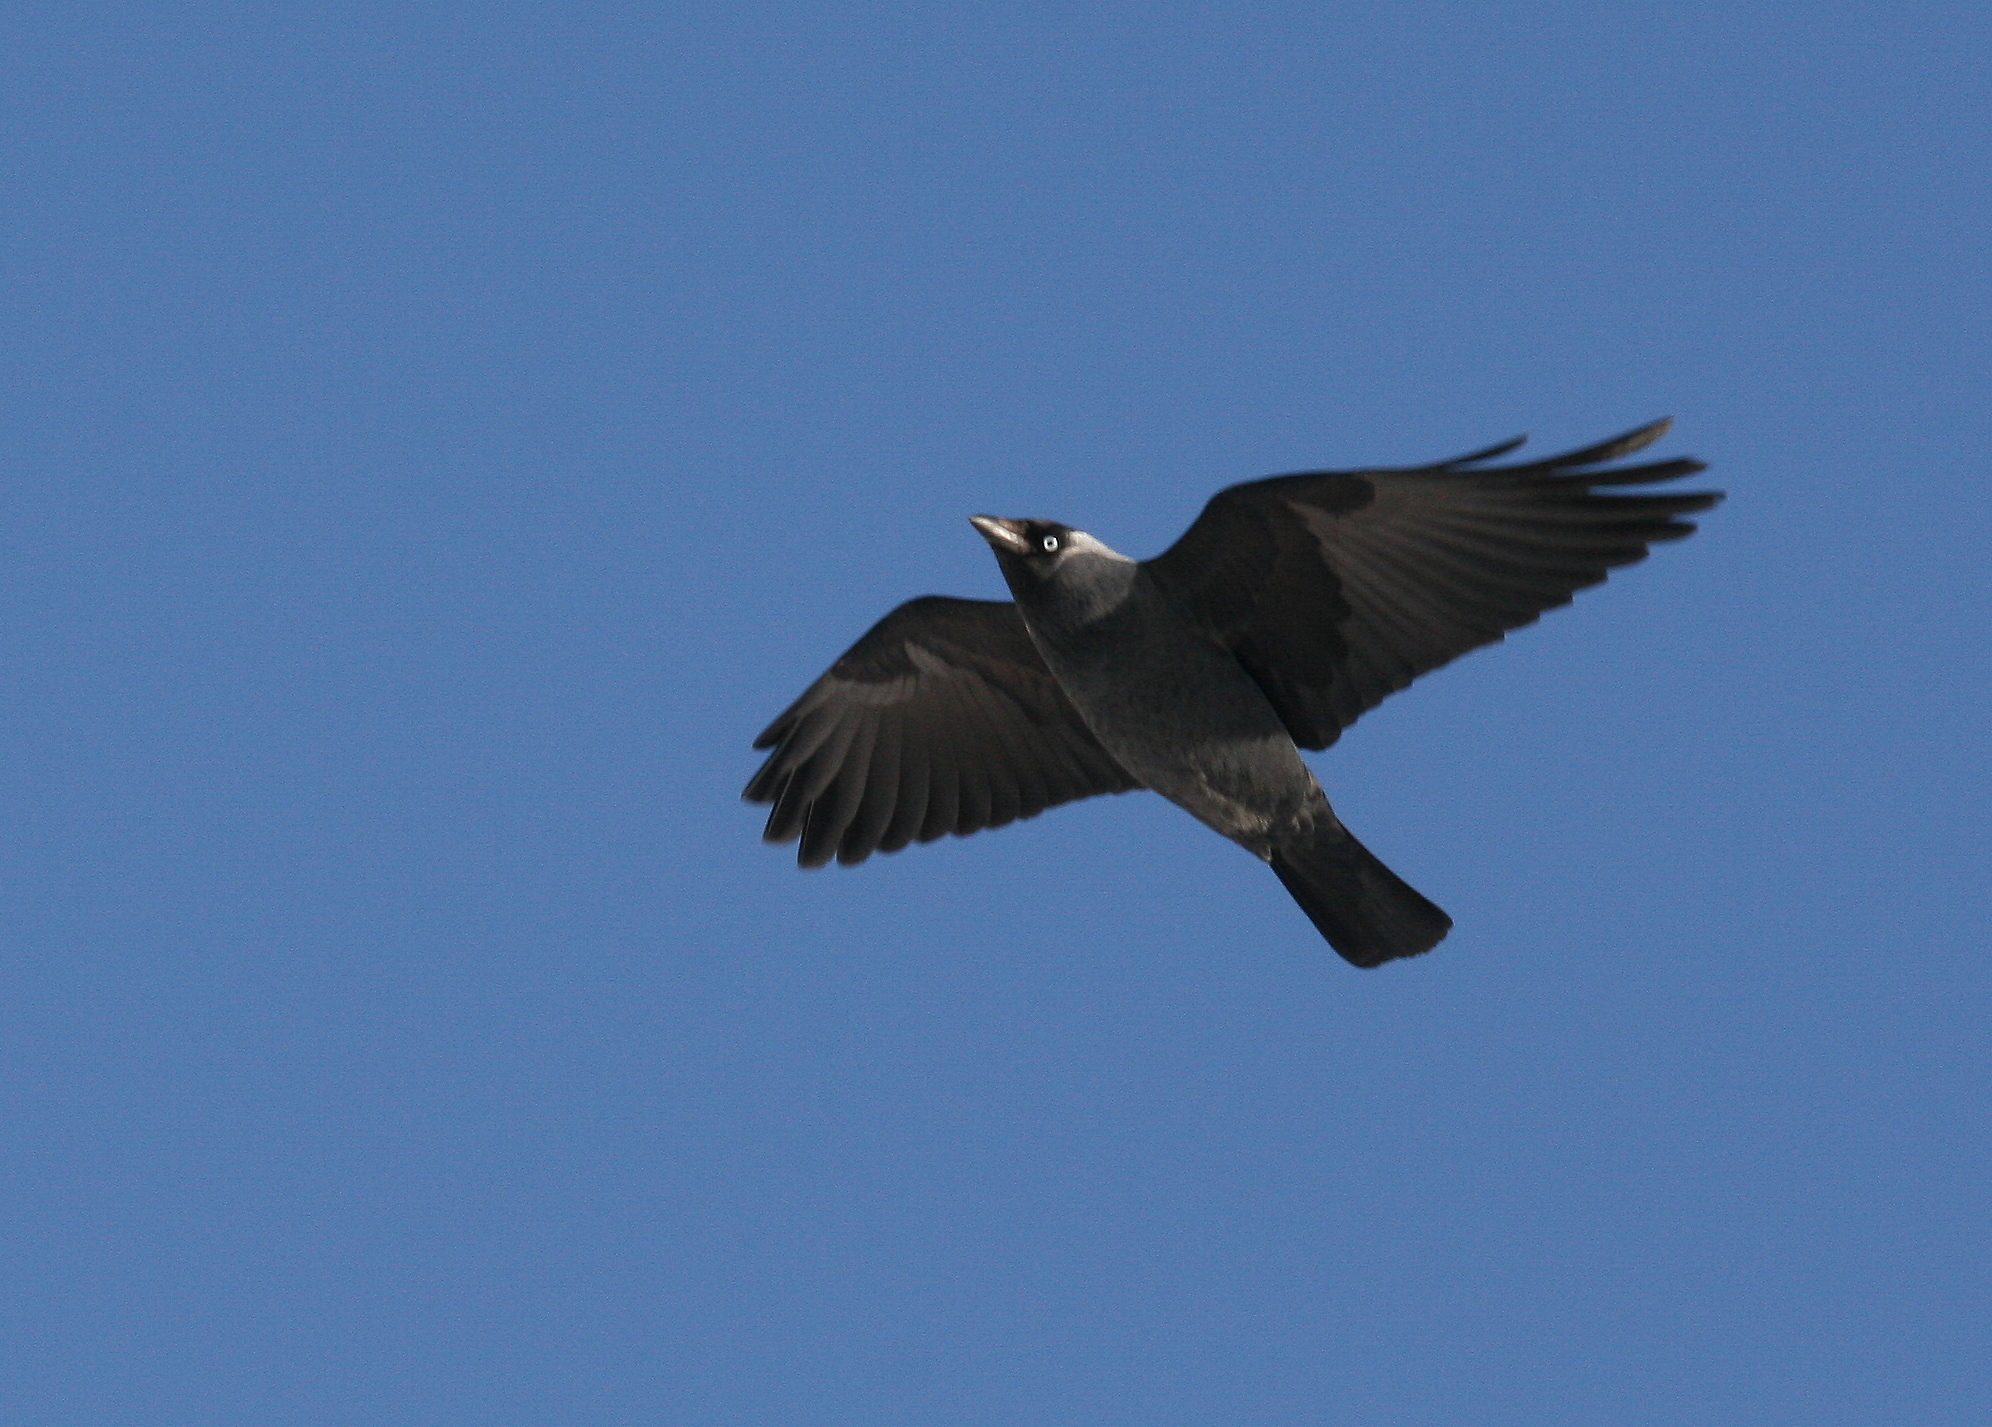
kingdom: Animalia
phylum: Chordata
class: Aves
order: Passeriformes
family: Corvidae
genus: Coloeus
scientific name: Coloeus monedula
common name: Western jackdaw
